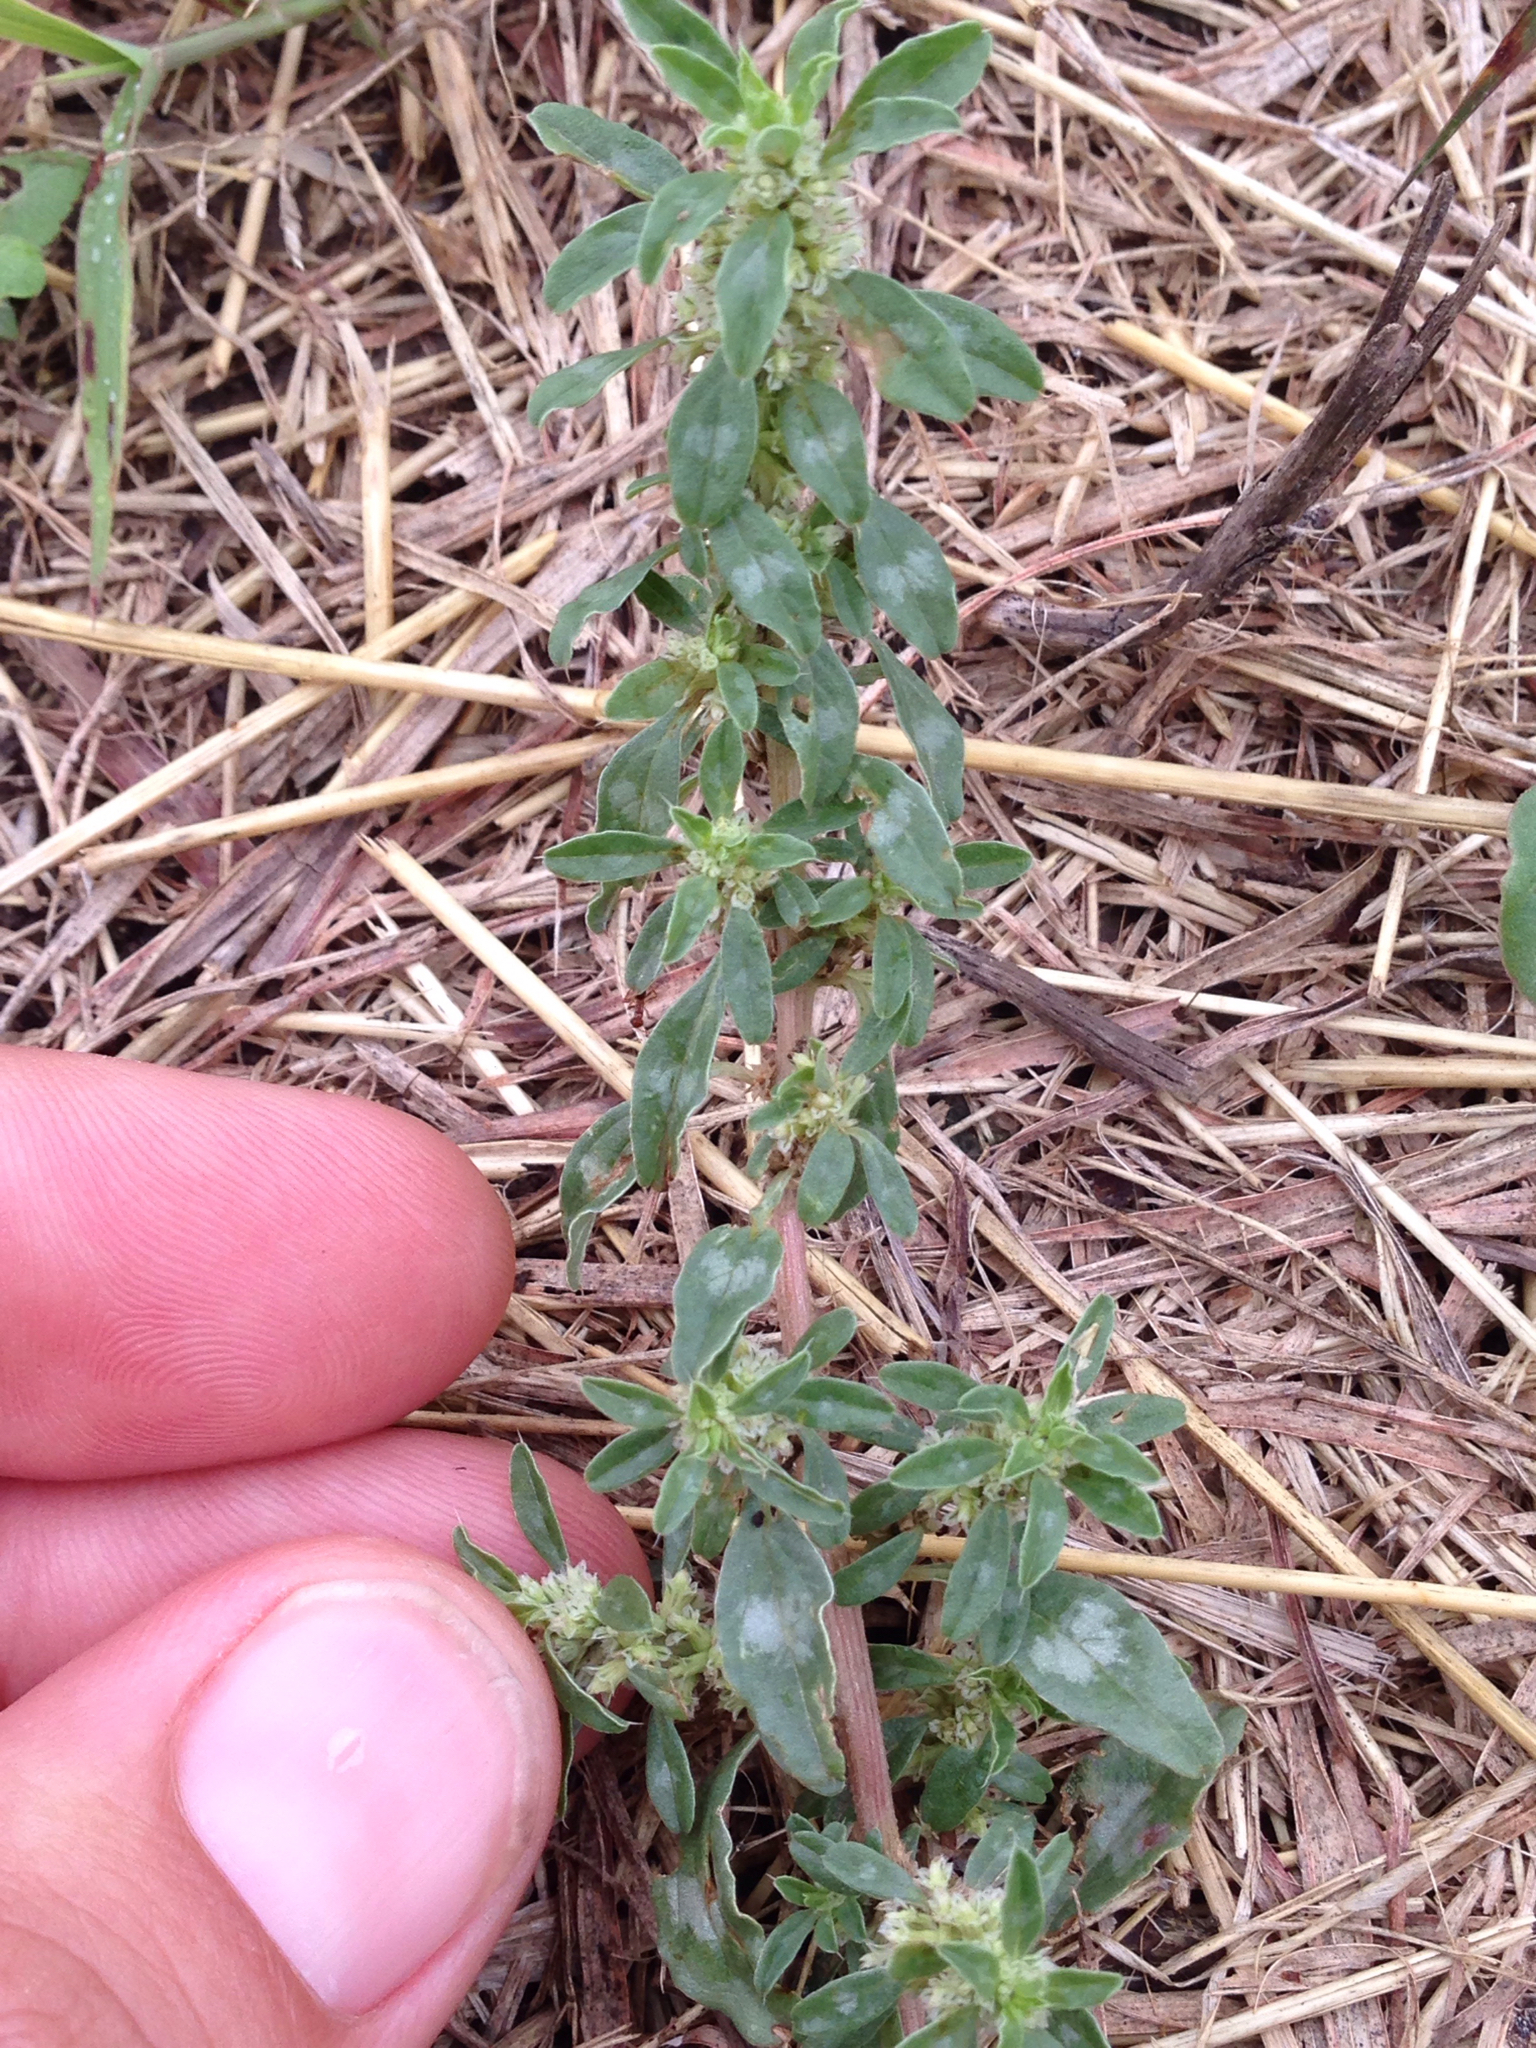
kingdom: Plantae
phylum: Tracheophyta
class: Magnoliopsida
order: Caryophyllales
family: Amaranthaceae
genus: Amaranthus
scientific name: Amaranthus blitoides
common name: Prostrate pigweed
